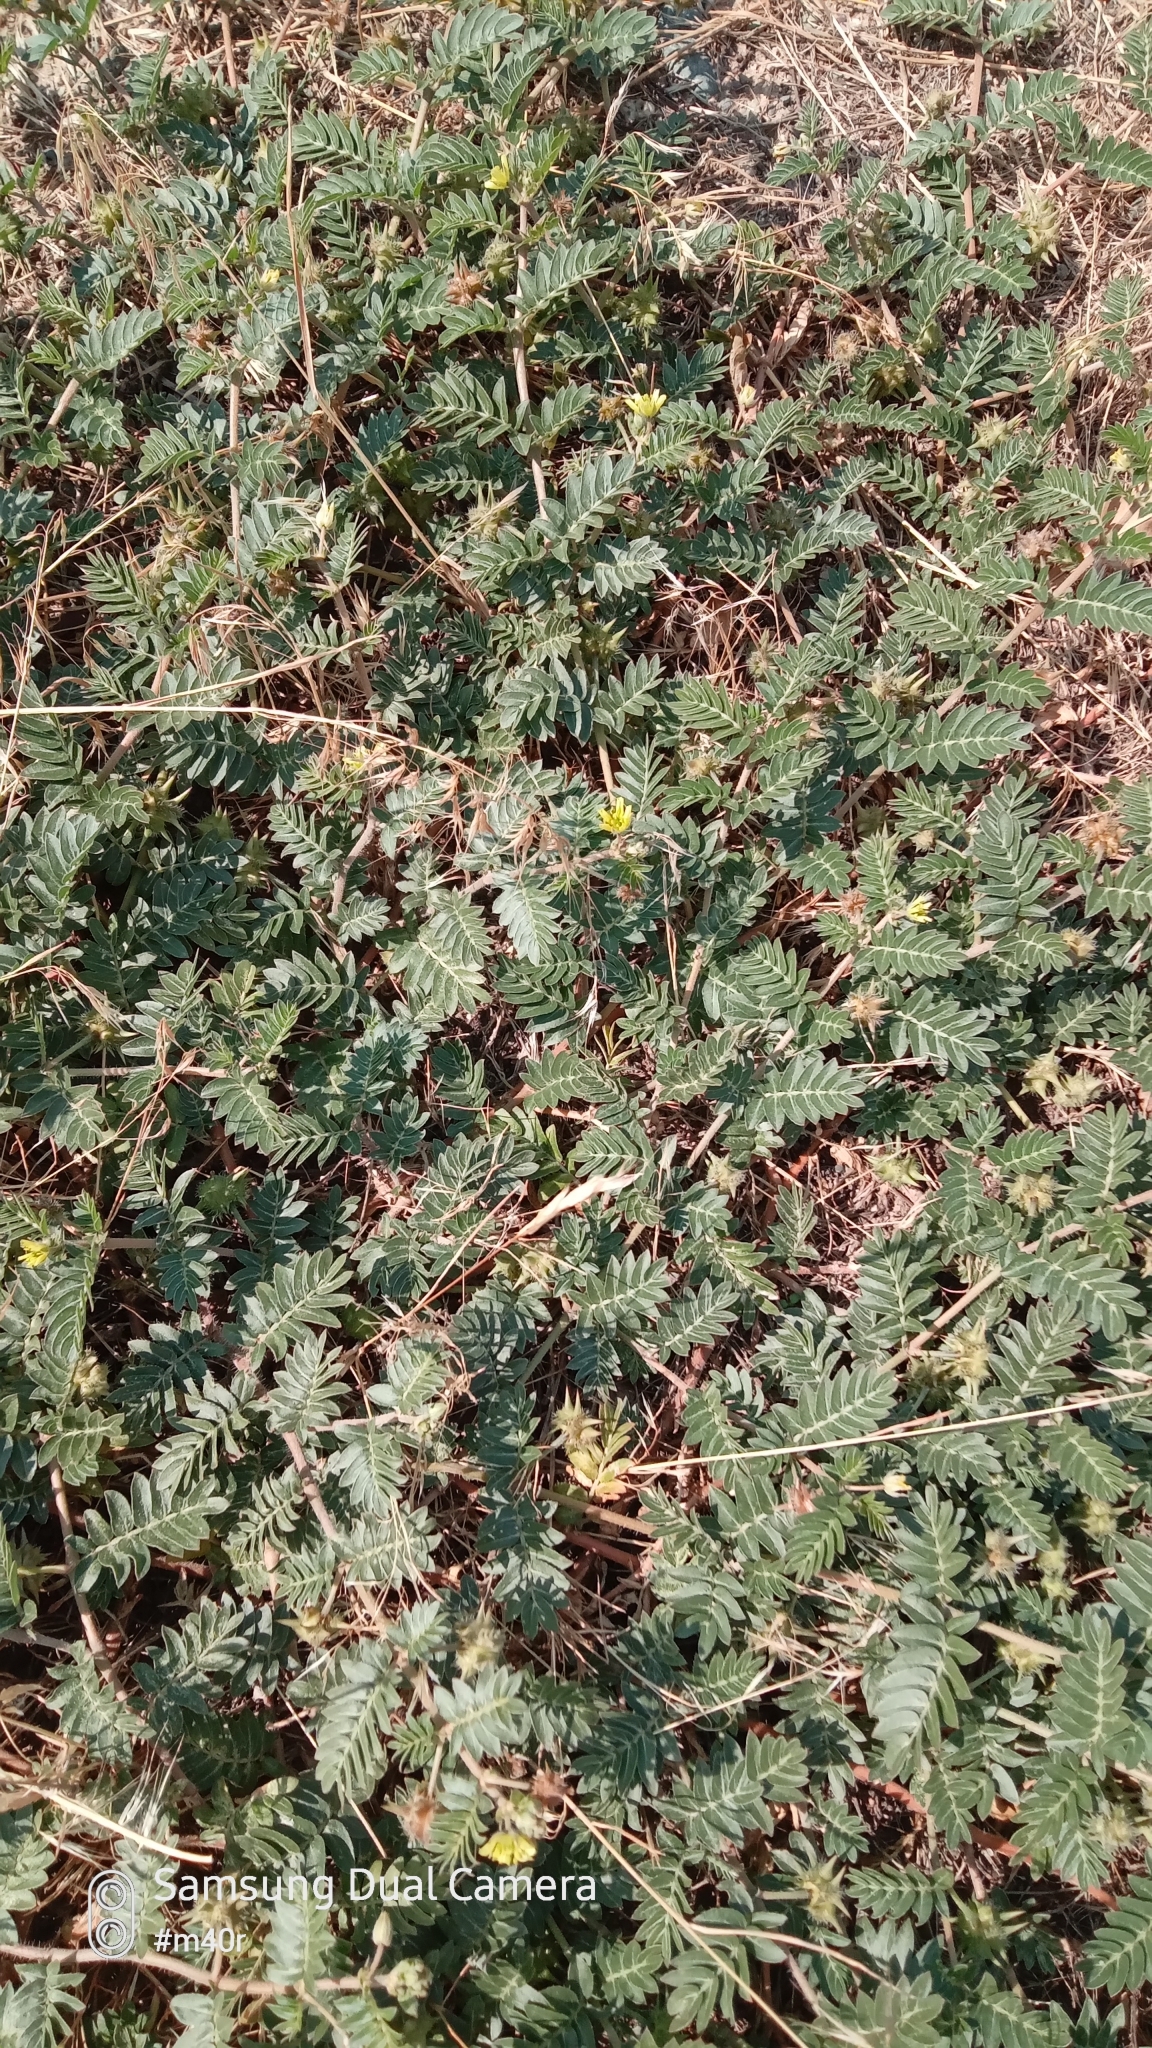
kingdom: Plantae
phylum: Tracheophyta
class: Magnoliopsida
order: Zygophyllales
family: Zygophyllaceae
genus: Tribulus
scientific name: Tribulus terrestris
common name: Puncturevine
